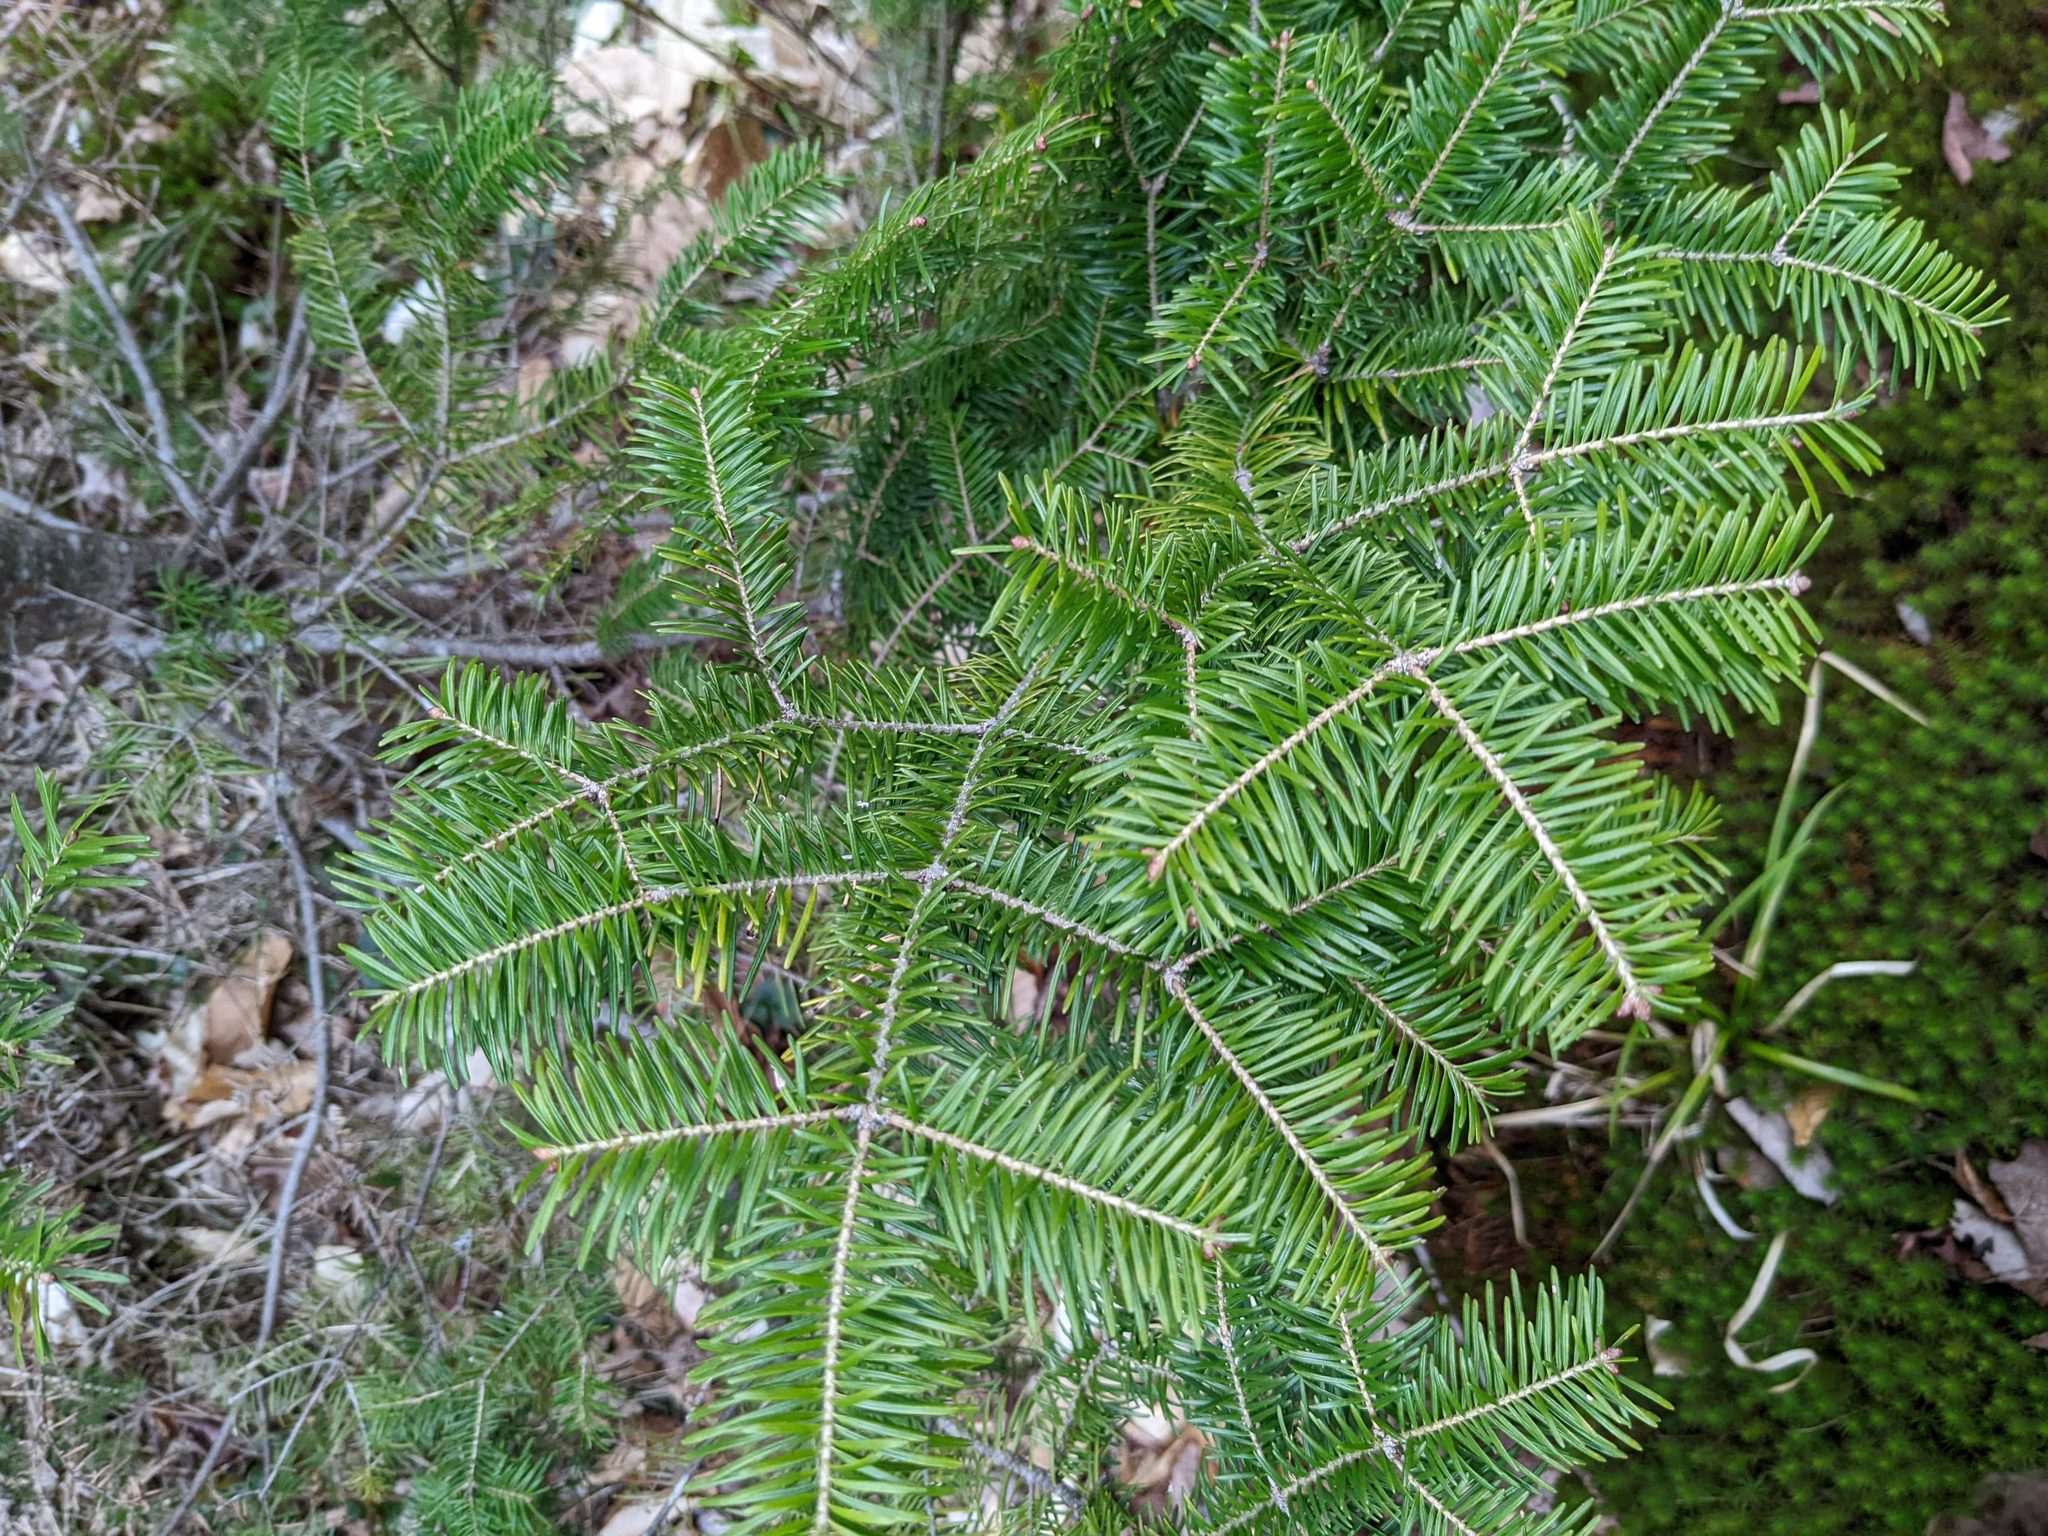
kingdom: Plantae
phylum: Tracheophyta
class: Pinopsida
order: Pinales
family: Pinaceae
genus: Abies
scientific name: Abies balsamea
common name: Balsam fir
